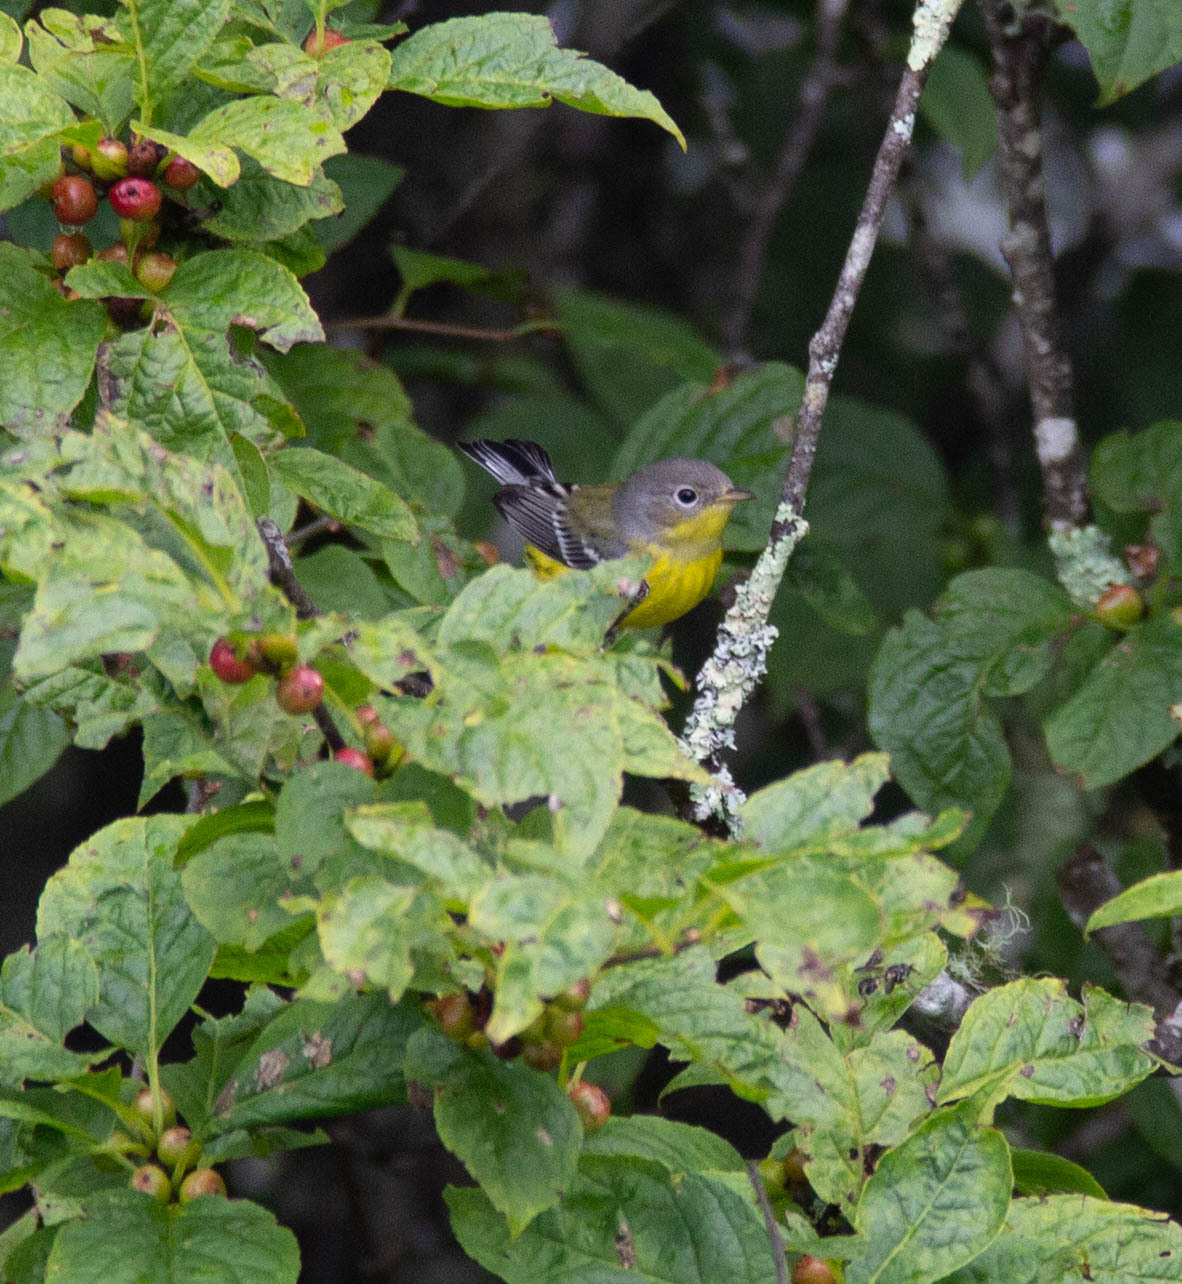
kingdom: Animalia
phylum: Chordata
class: Aves
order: Passeriformes
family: Parulidae
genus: Setophaga
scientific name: Setophaga magnolia
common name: Magnolia warbler
